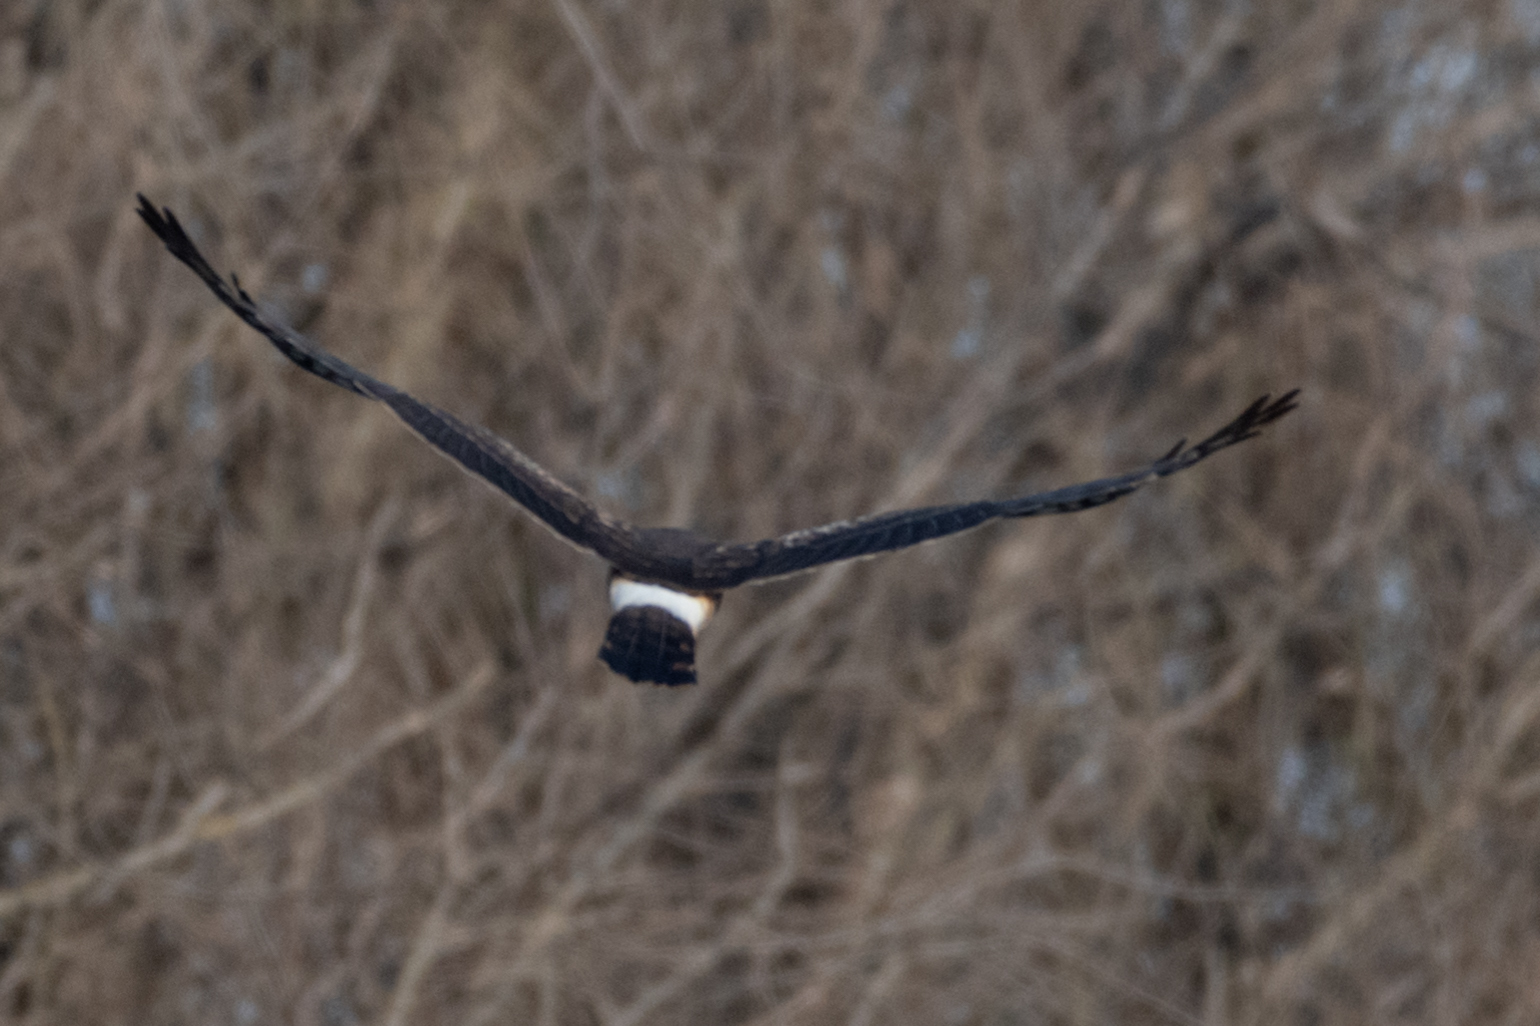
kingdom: Animalia
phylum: Chordata
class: Aves
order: Accipitriformes
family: Accipitridae
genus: Circus
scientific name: Circus cyaneus
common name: Hen harrier
